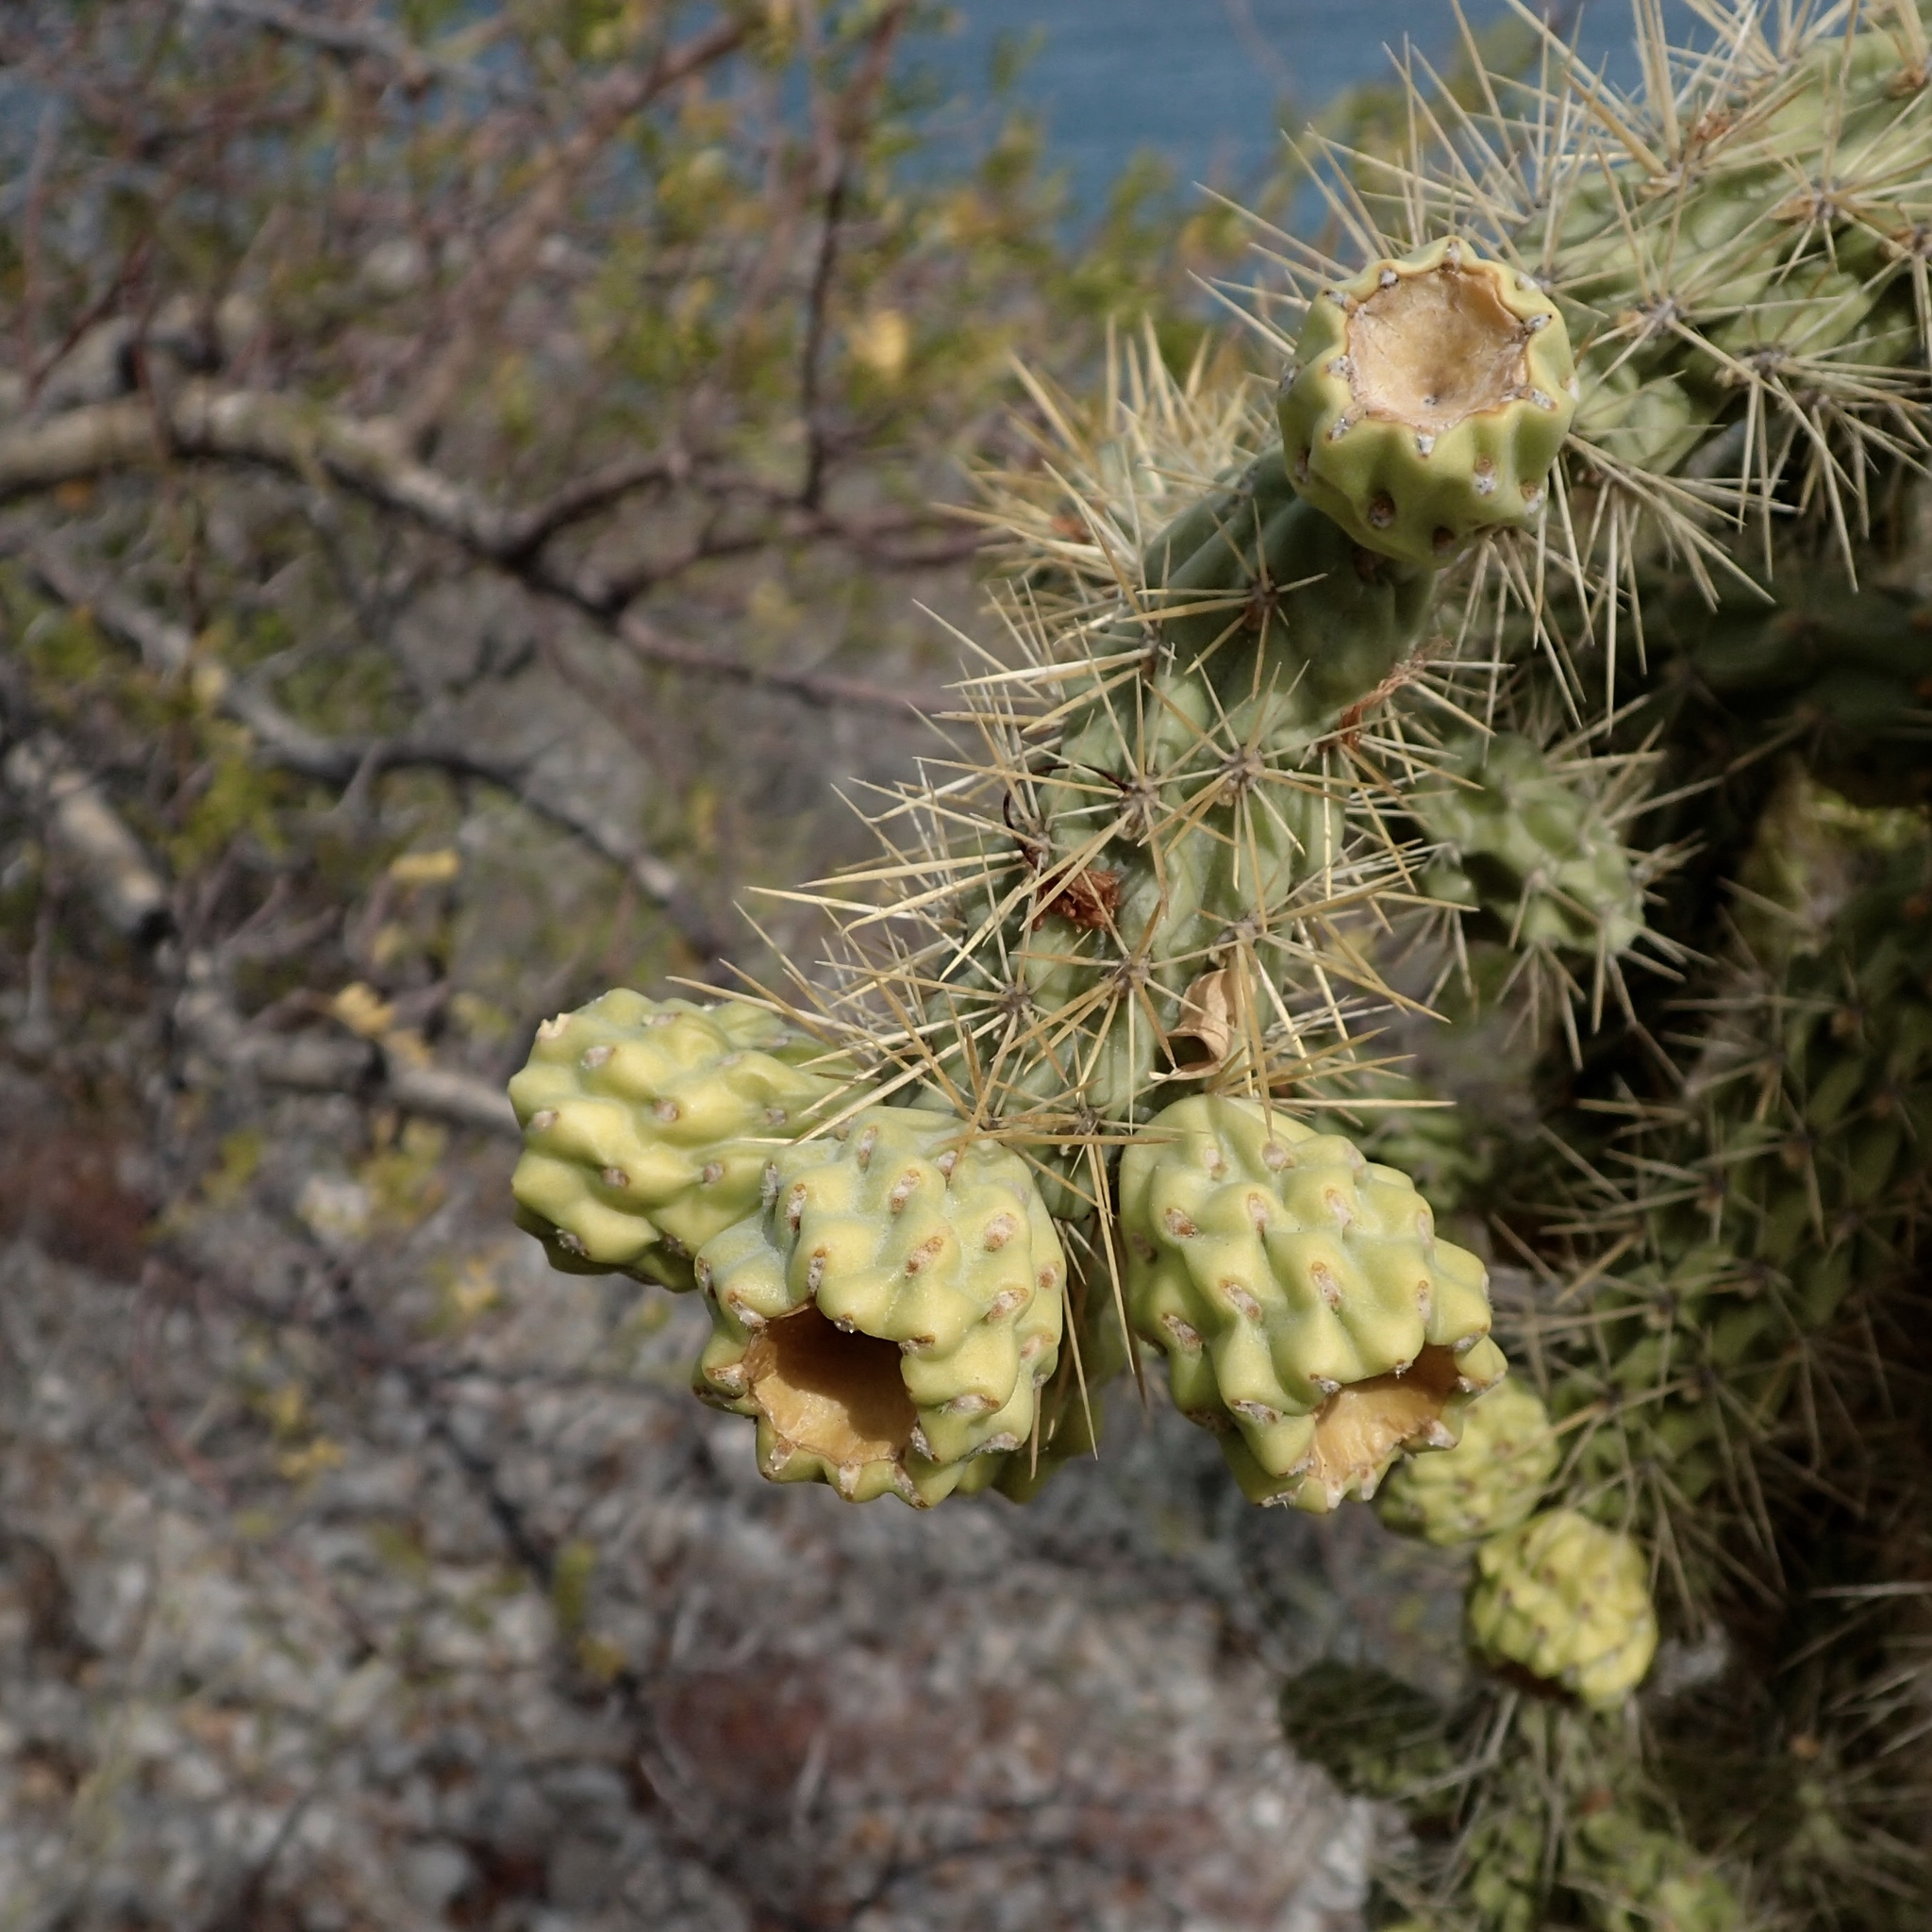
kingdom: Plantae
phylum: Tracheophyta
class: Magnoliopsida
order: Caryophyllales
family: Cactaceae
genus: Cylindropuntia
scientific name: Cylindropuntia alcahes
